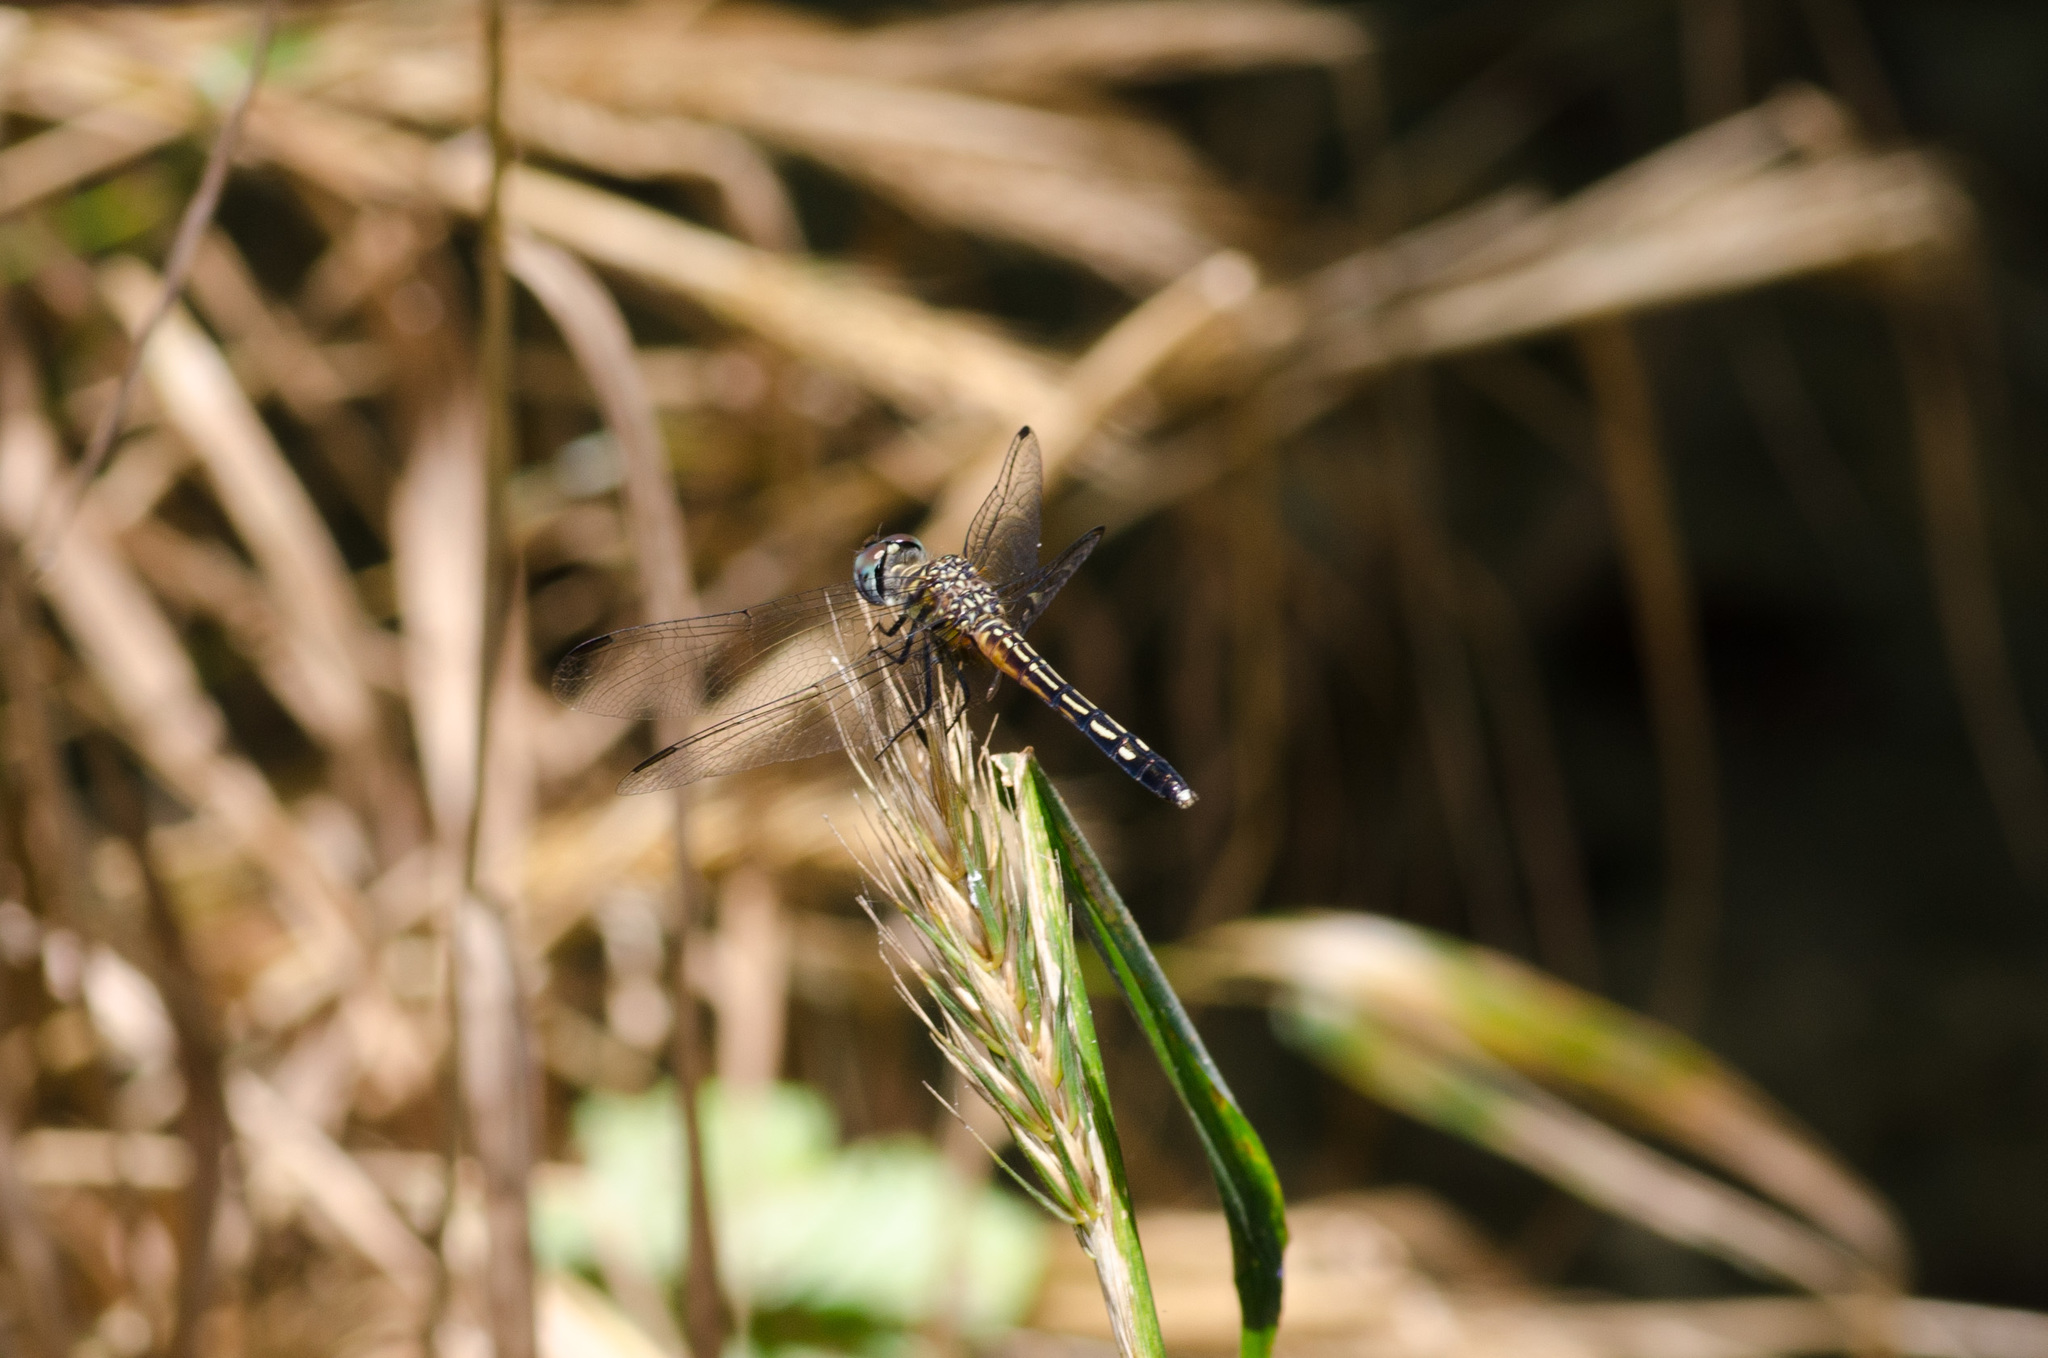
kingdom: Animalia
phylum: Arthropoda
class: Insecta
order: Odonata
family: Libellulidae
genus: Pachydiplax
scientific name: Pachydiplax longipennis
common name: Blue dasher
